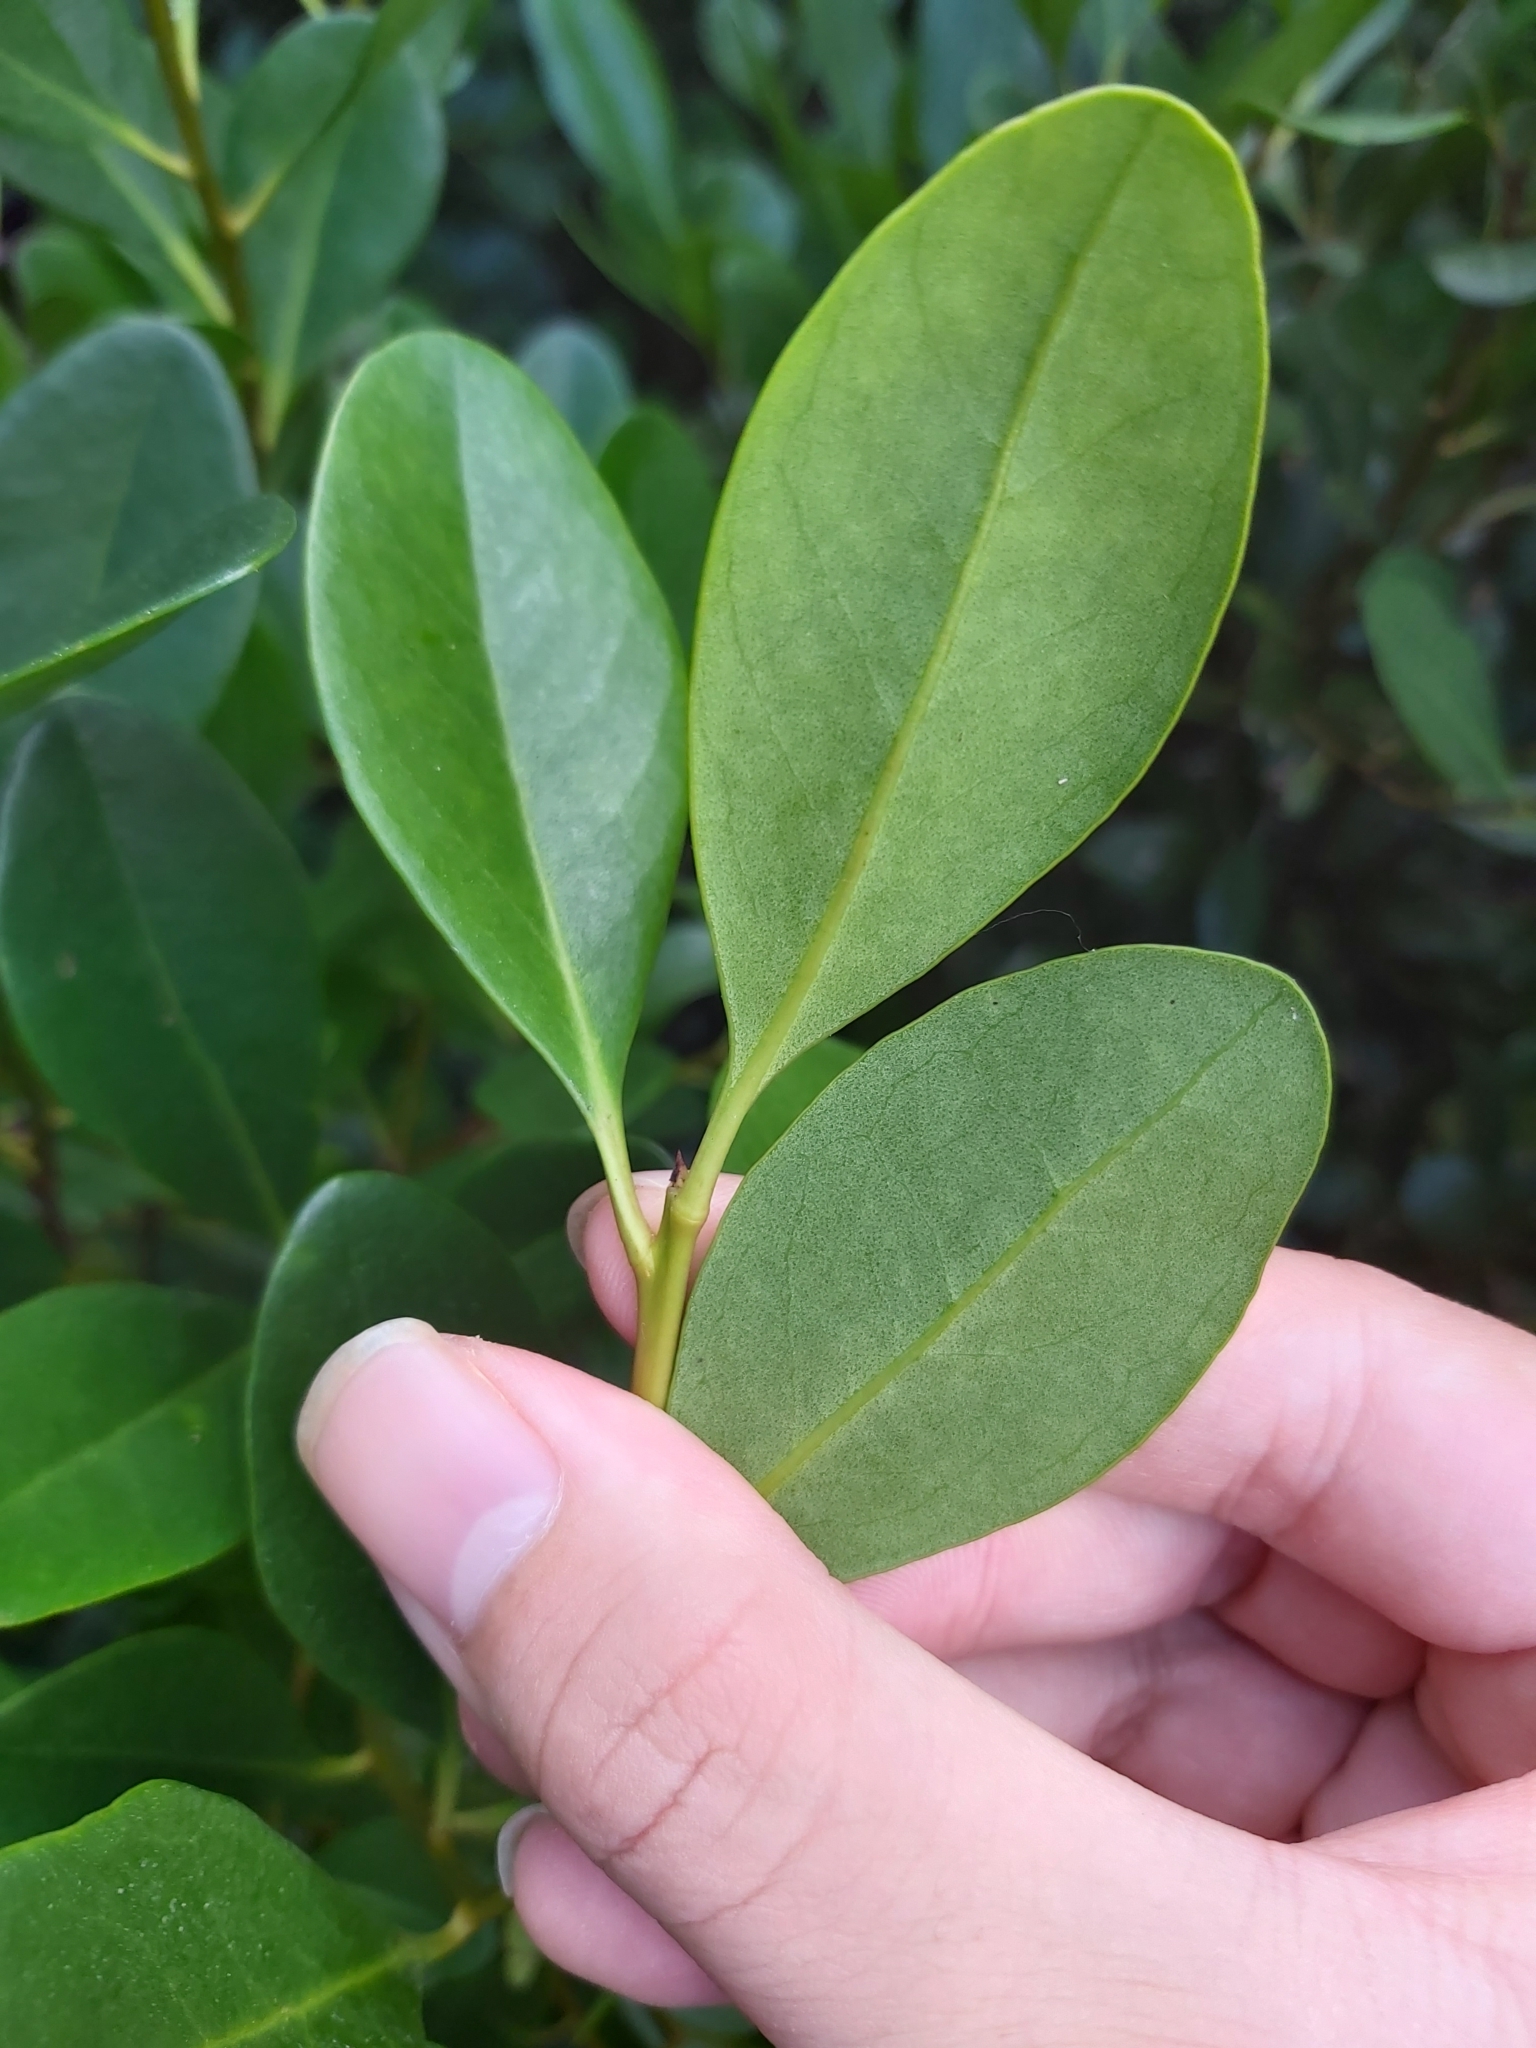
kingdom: Plantae
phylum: Tracheophyta
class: Magnoliopsida
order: Ericales
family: Primulaceae
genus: Aegiceras
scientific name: Aegiceras corniculatum
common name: River mangrove
